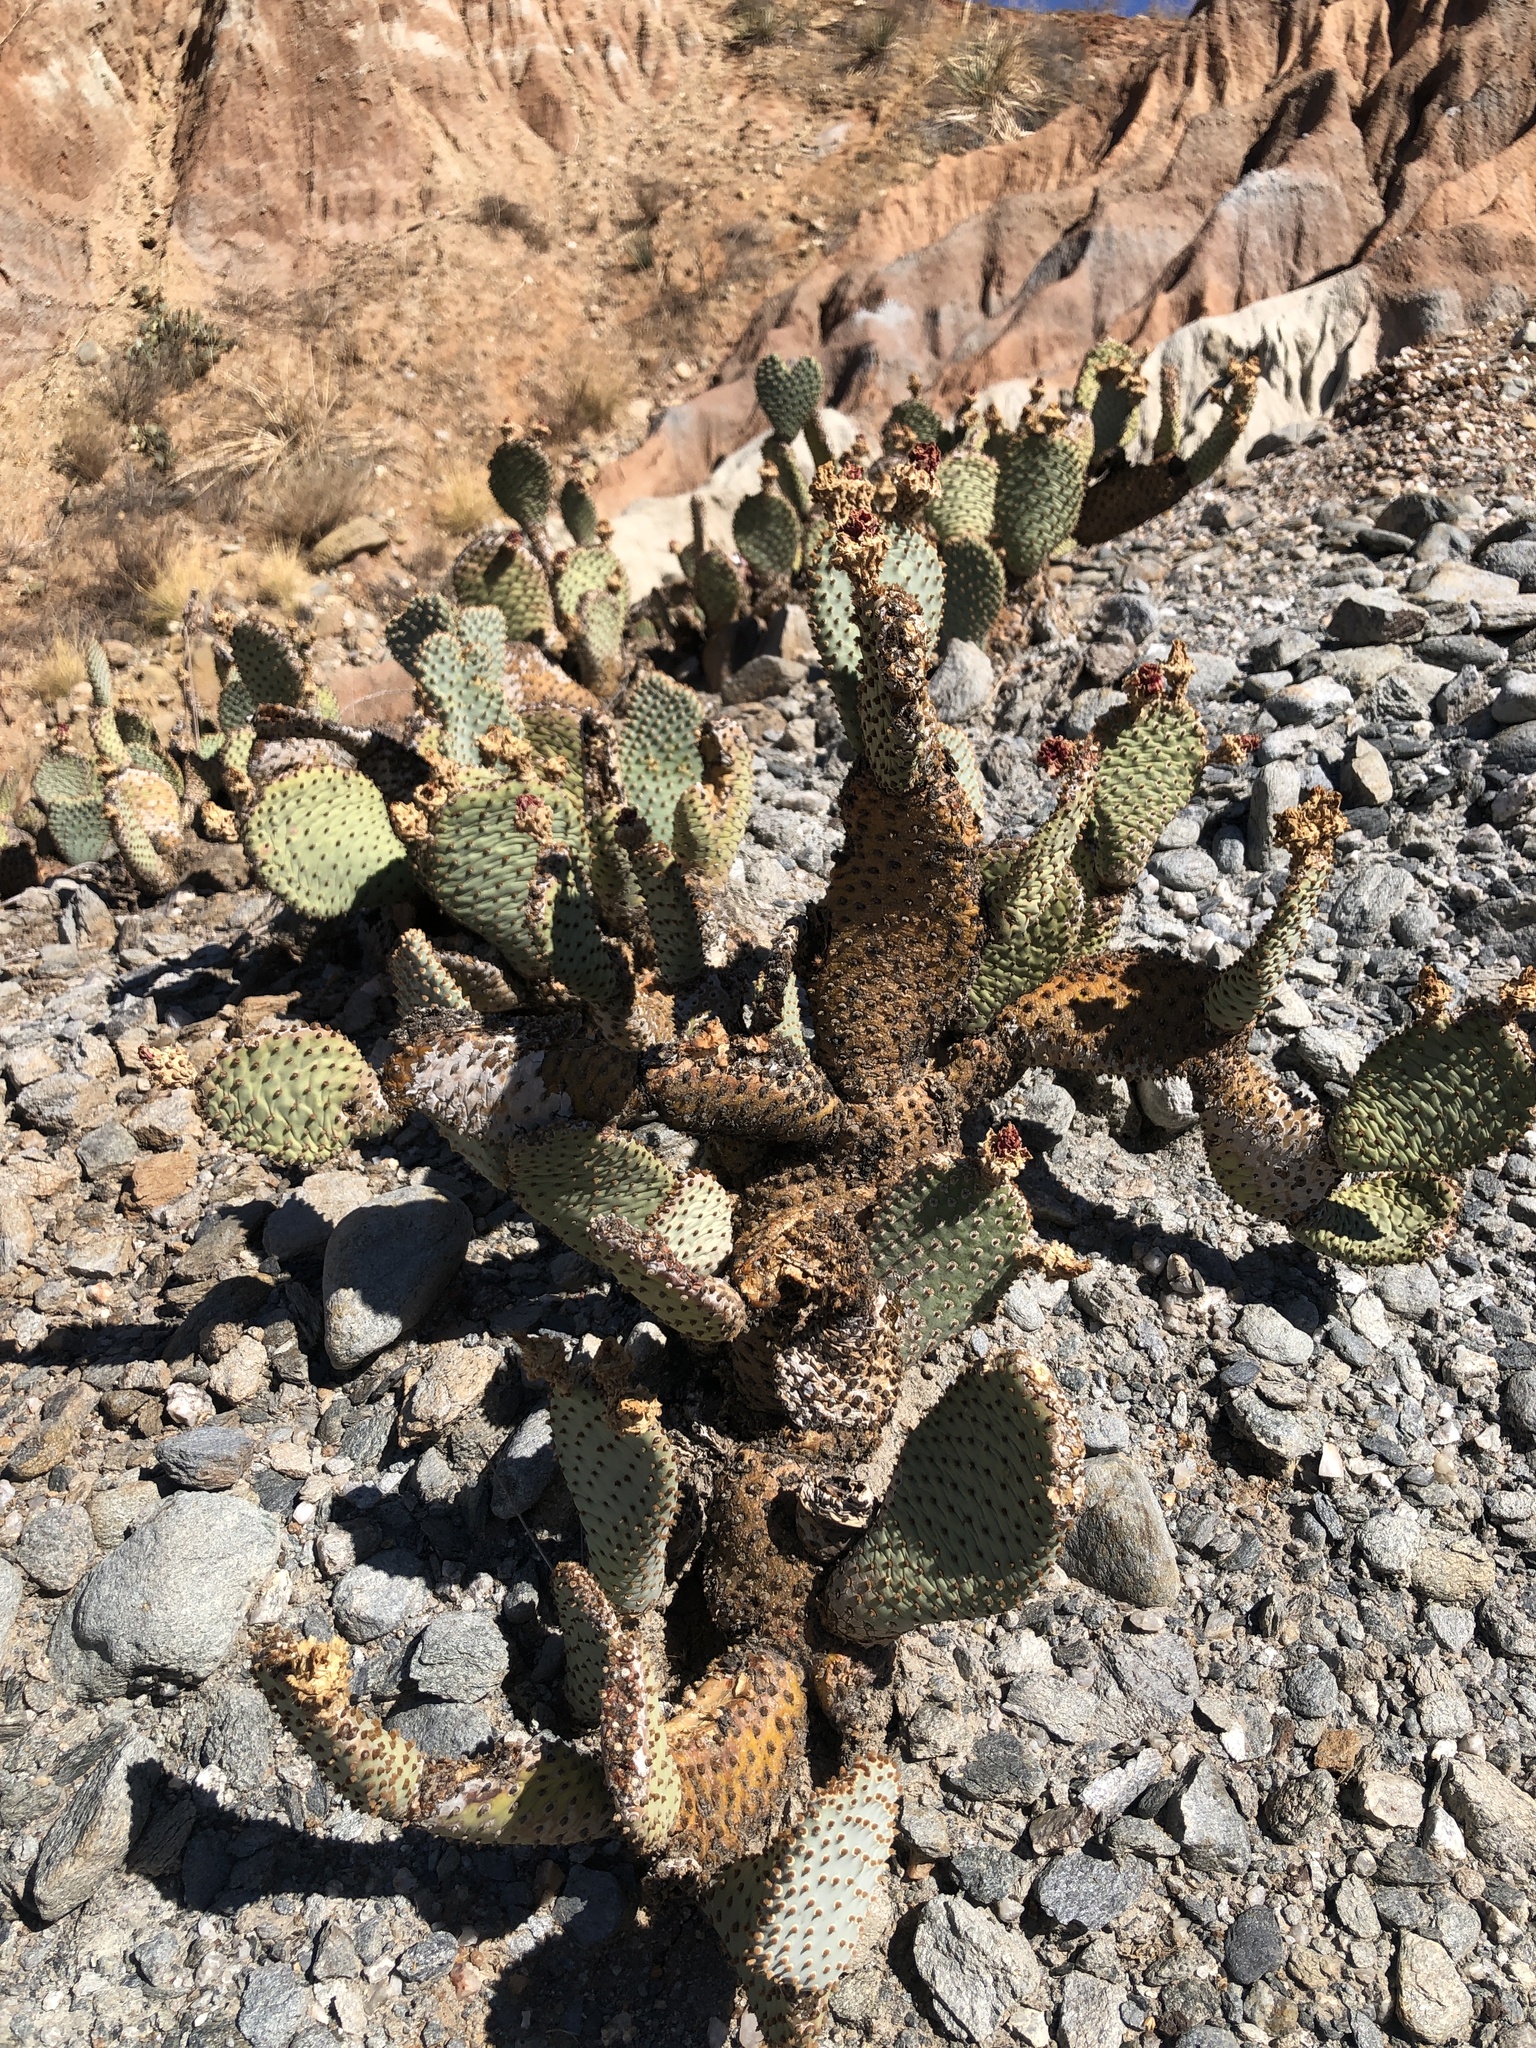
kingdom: Plantae
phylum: Tracheophyta
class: Magnoliopsida
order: Caryophyllales
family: Cactaceae
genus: Opuntia
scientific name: Opuntia basilaris
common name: Beavertail prickly-pear
